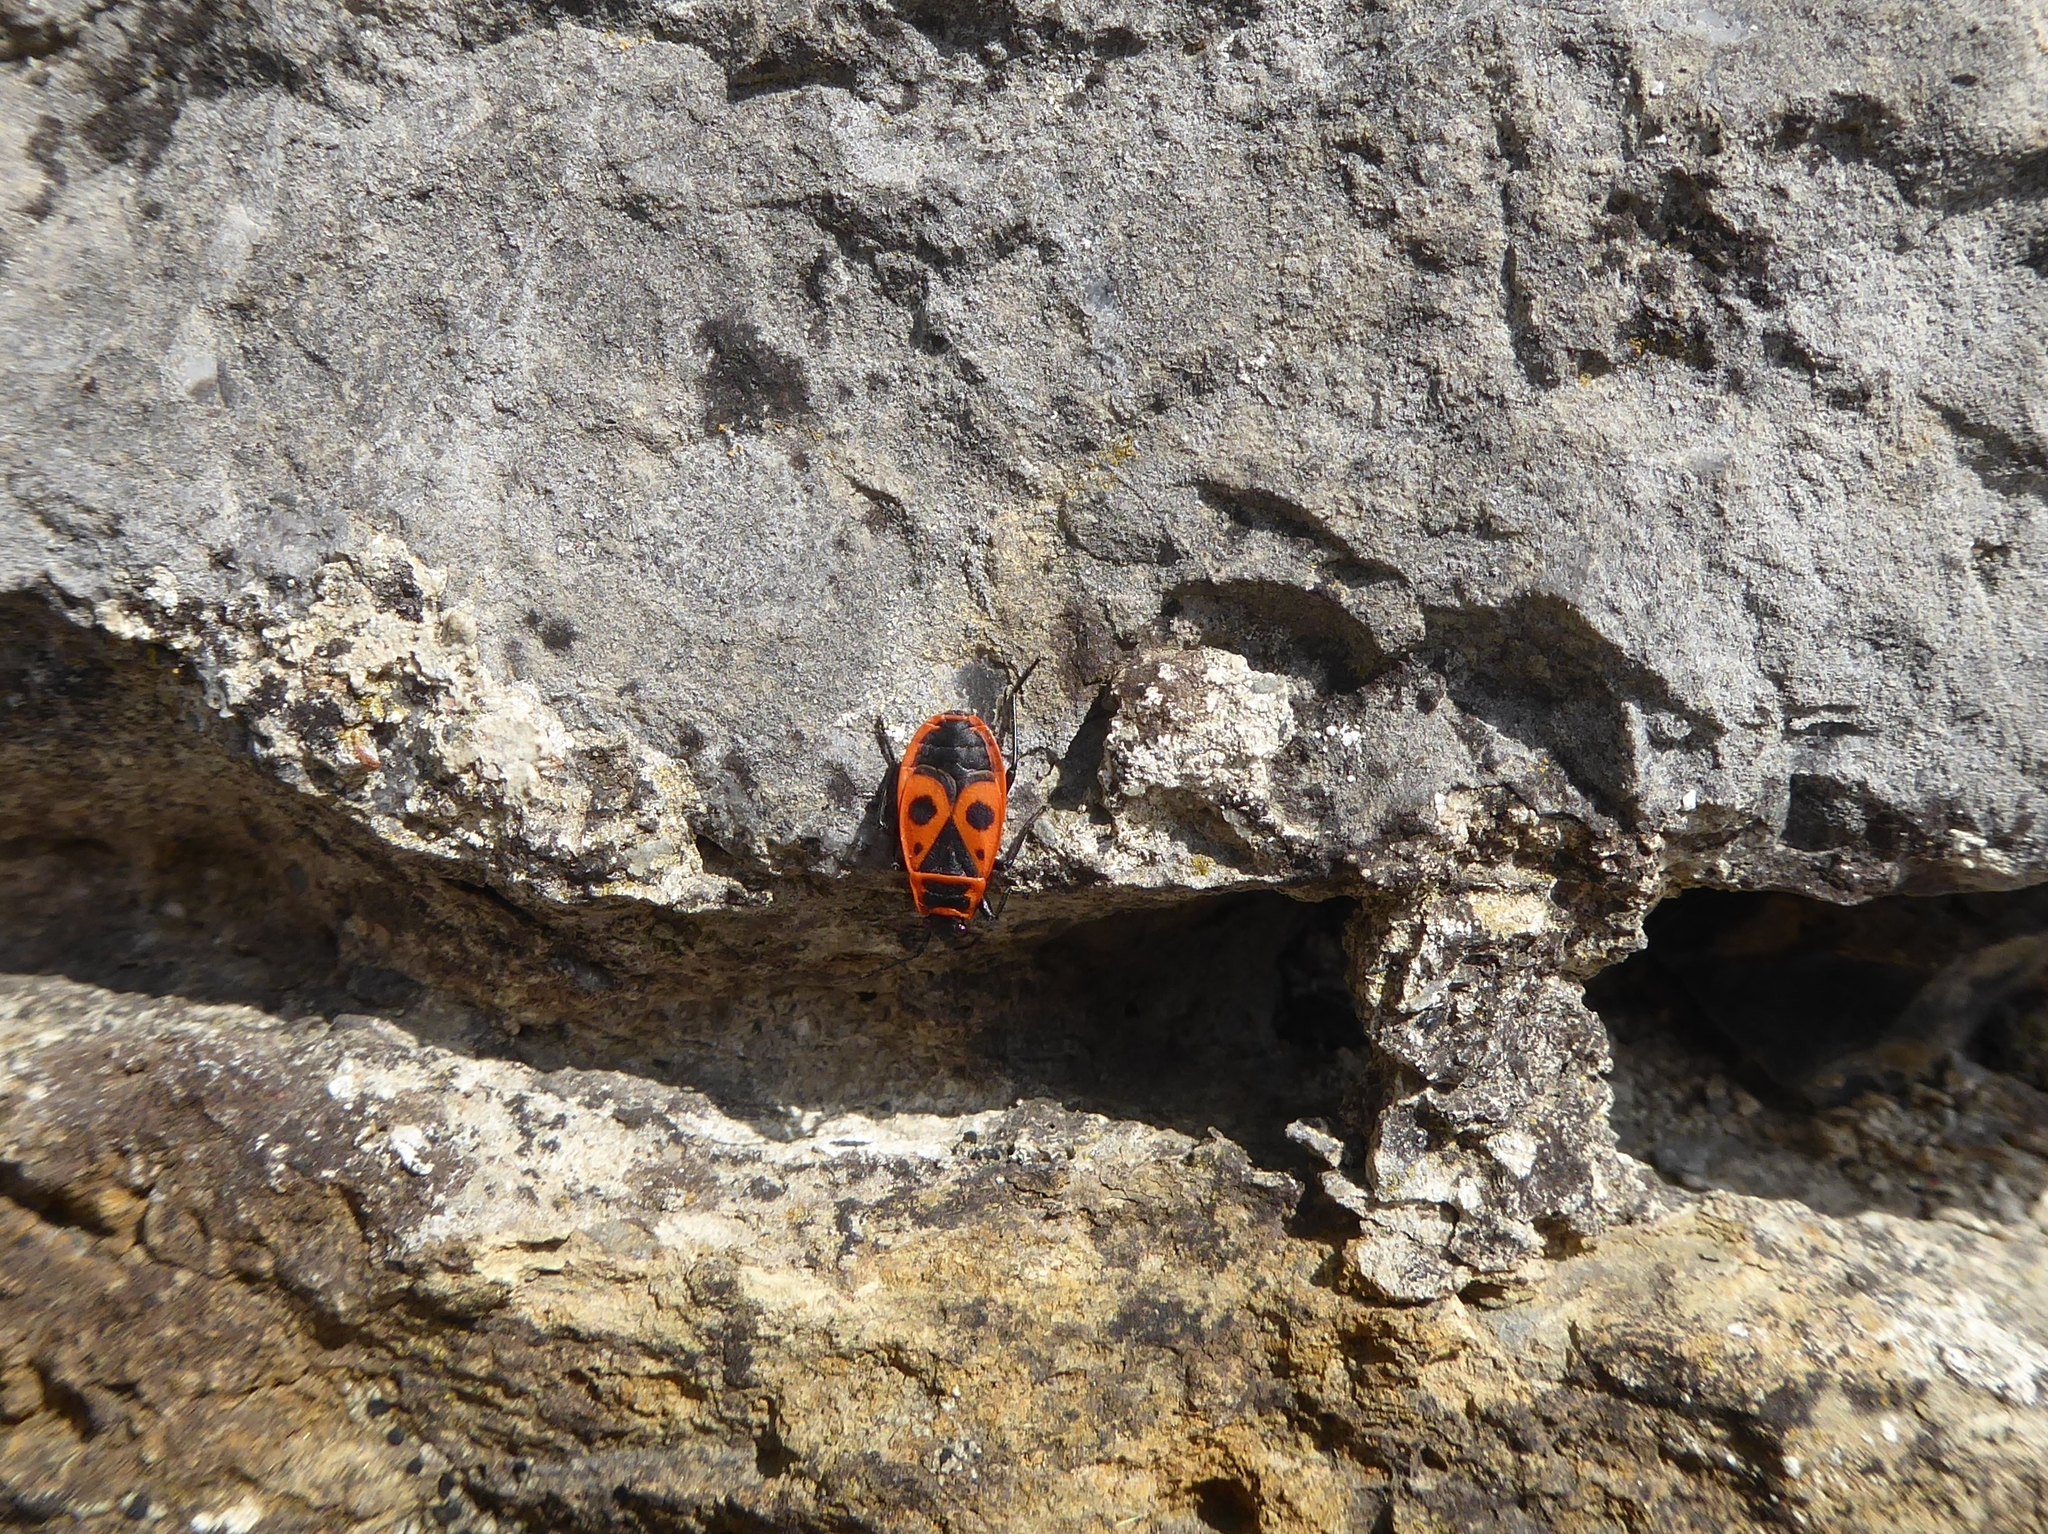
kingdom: Animalia
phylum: Arthropoda
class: Insecta
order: Hemiptera
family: Pyrrhocoridae
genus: Pyrrhocoris
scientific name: Pyrrhocoris apterus
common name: Firebug
